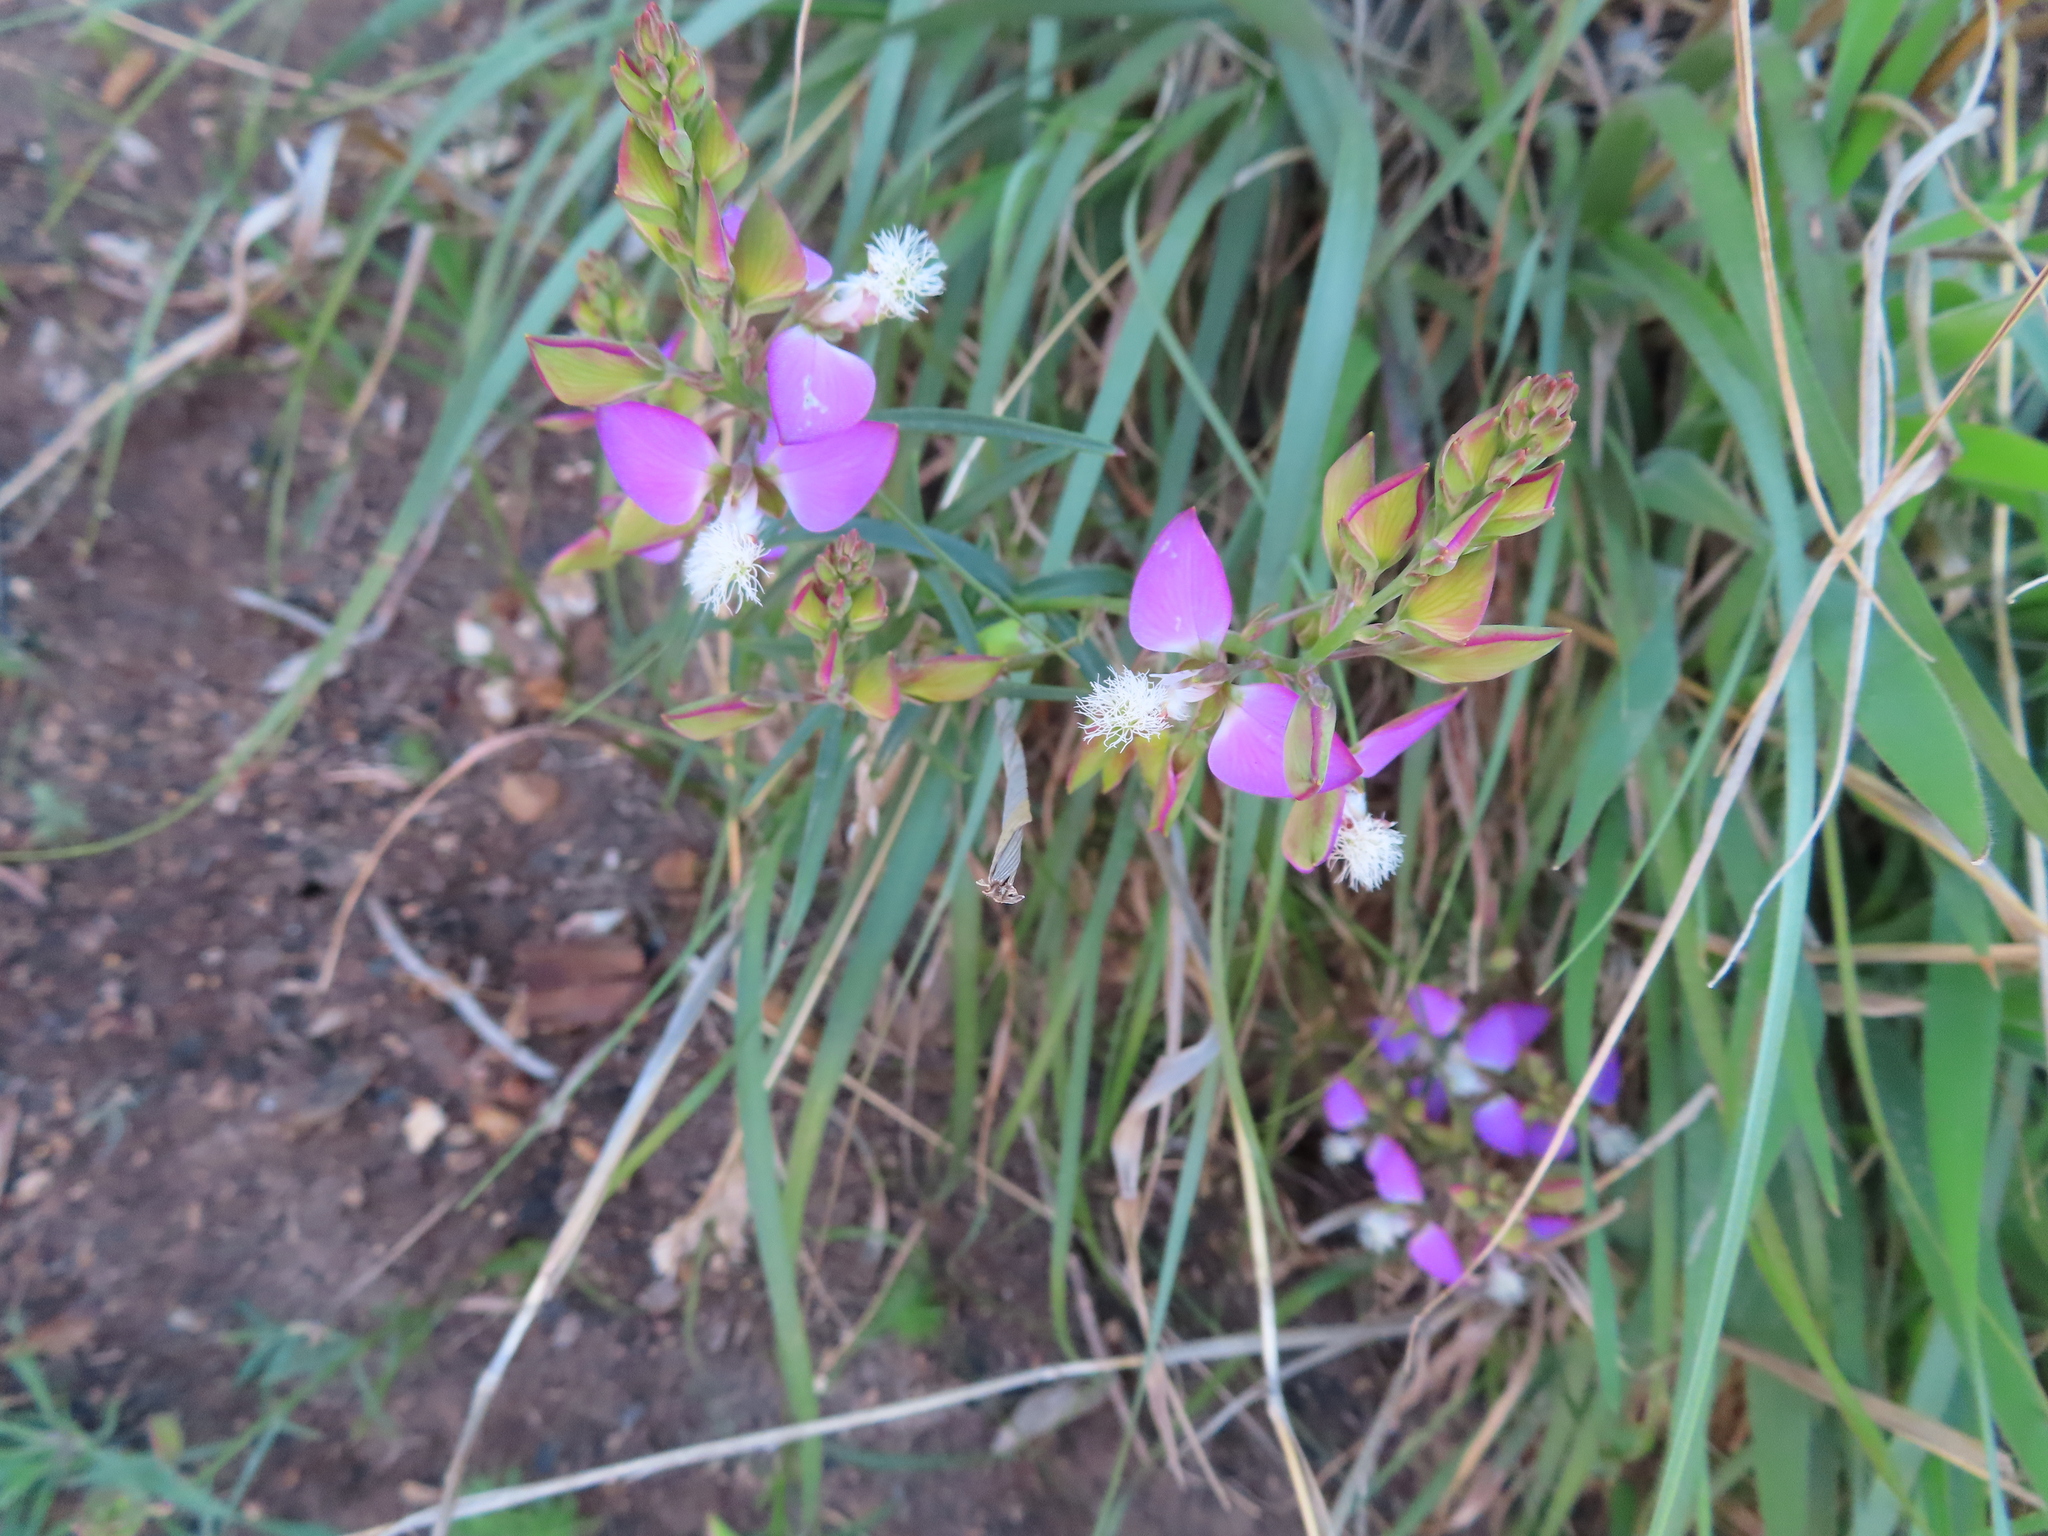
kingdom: Plantae
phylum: Tracheophyta
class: Magnoliopsida
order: Fabales
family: Polygalaceae
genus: Polygala
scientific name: Polygala bracteolata
